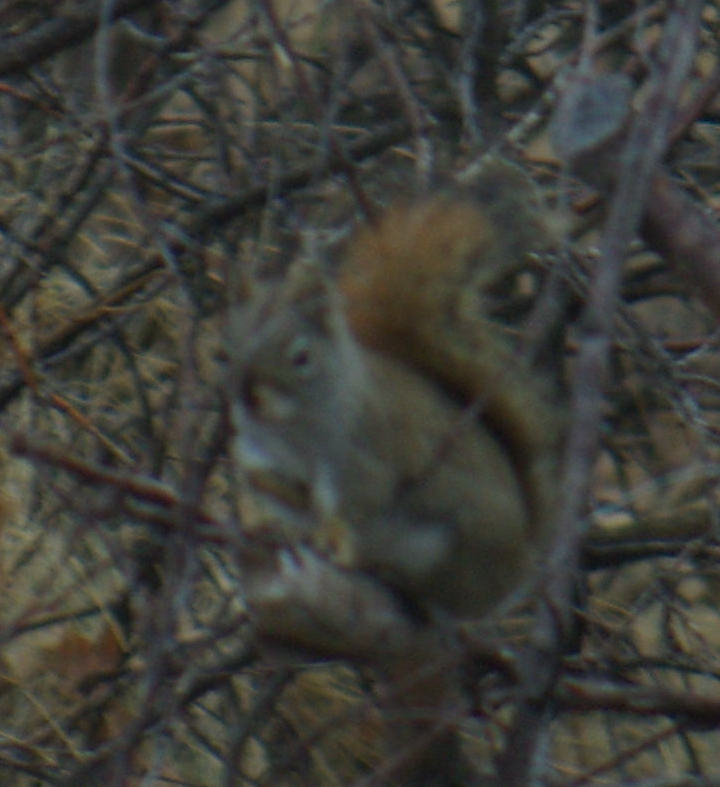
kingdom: Animalia
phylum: Chordata
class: Mammalia
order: Rodentia
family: Sciuridae
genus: Tamiasciurus
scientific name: Tamiasciurus hudsonicus
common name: Red squirrel
